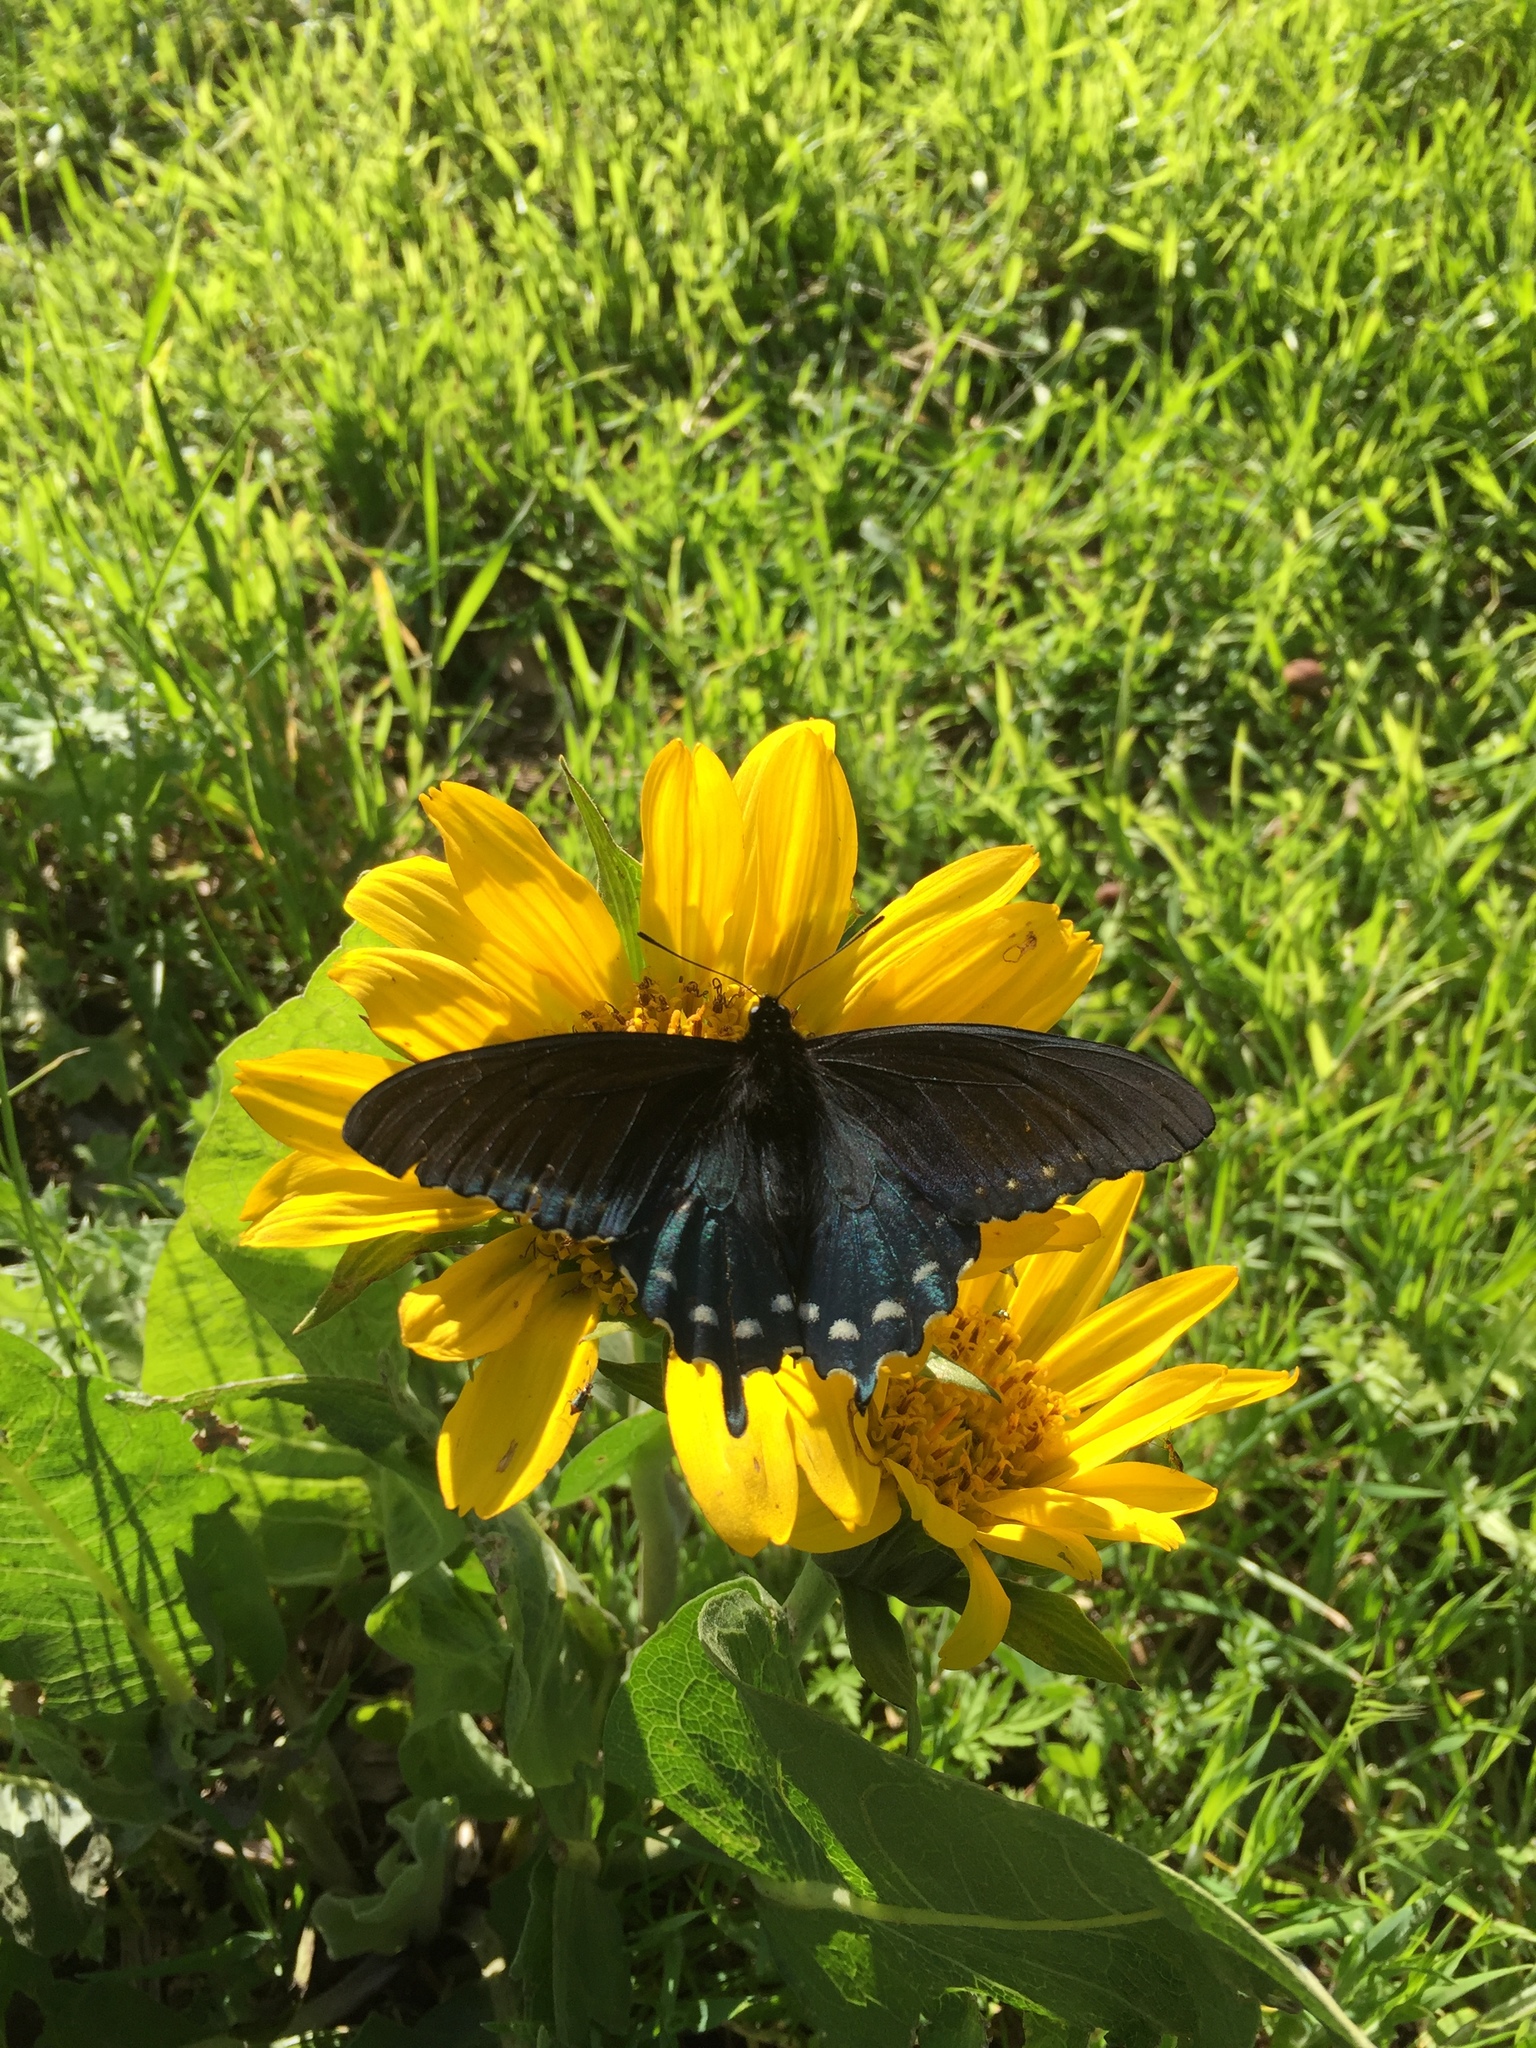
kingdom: Animalia
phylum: Arthropoda
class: Insecta
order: Lepidoptera
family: Papilionidae
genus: Battus
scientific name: Battus philenor
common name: Pipevine swallowtail
